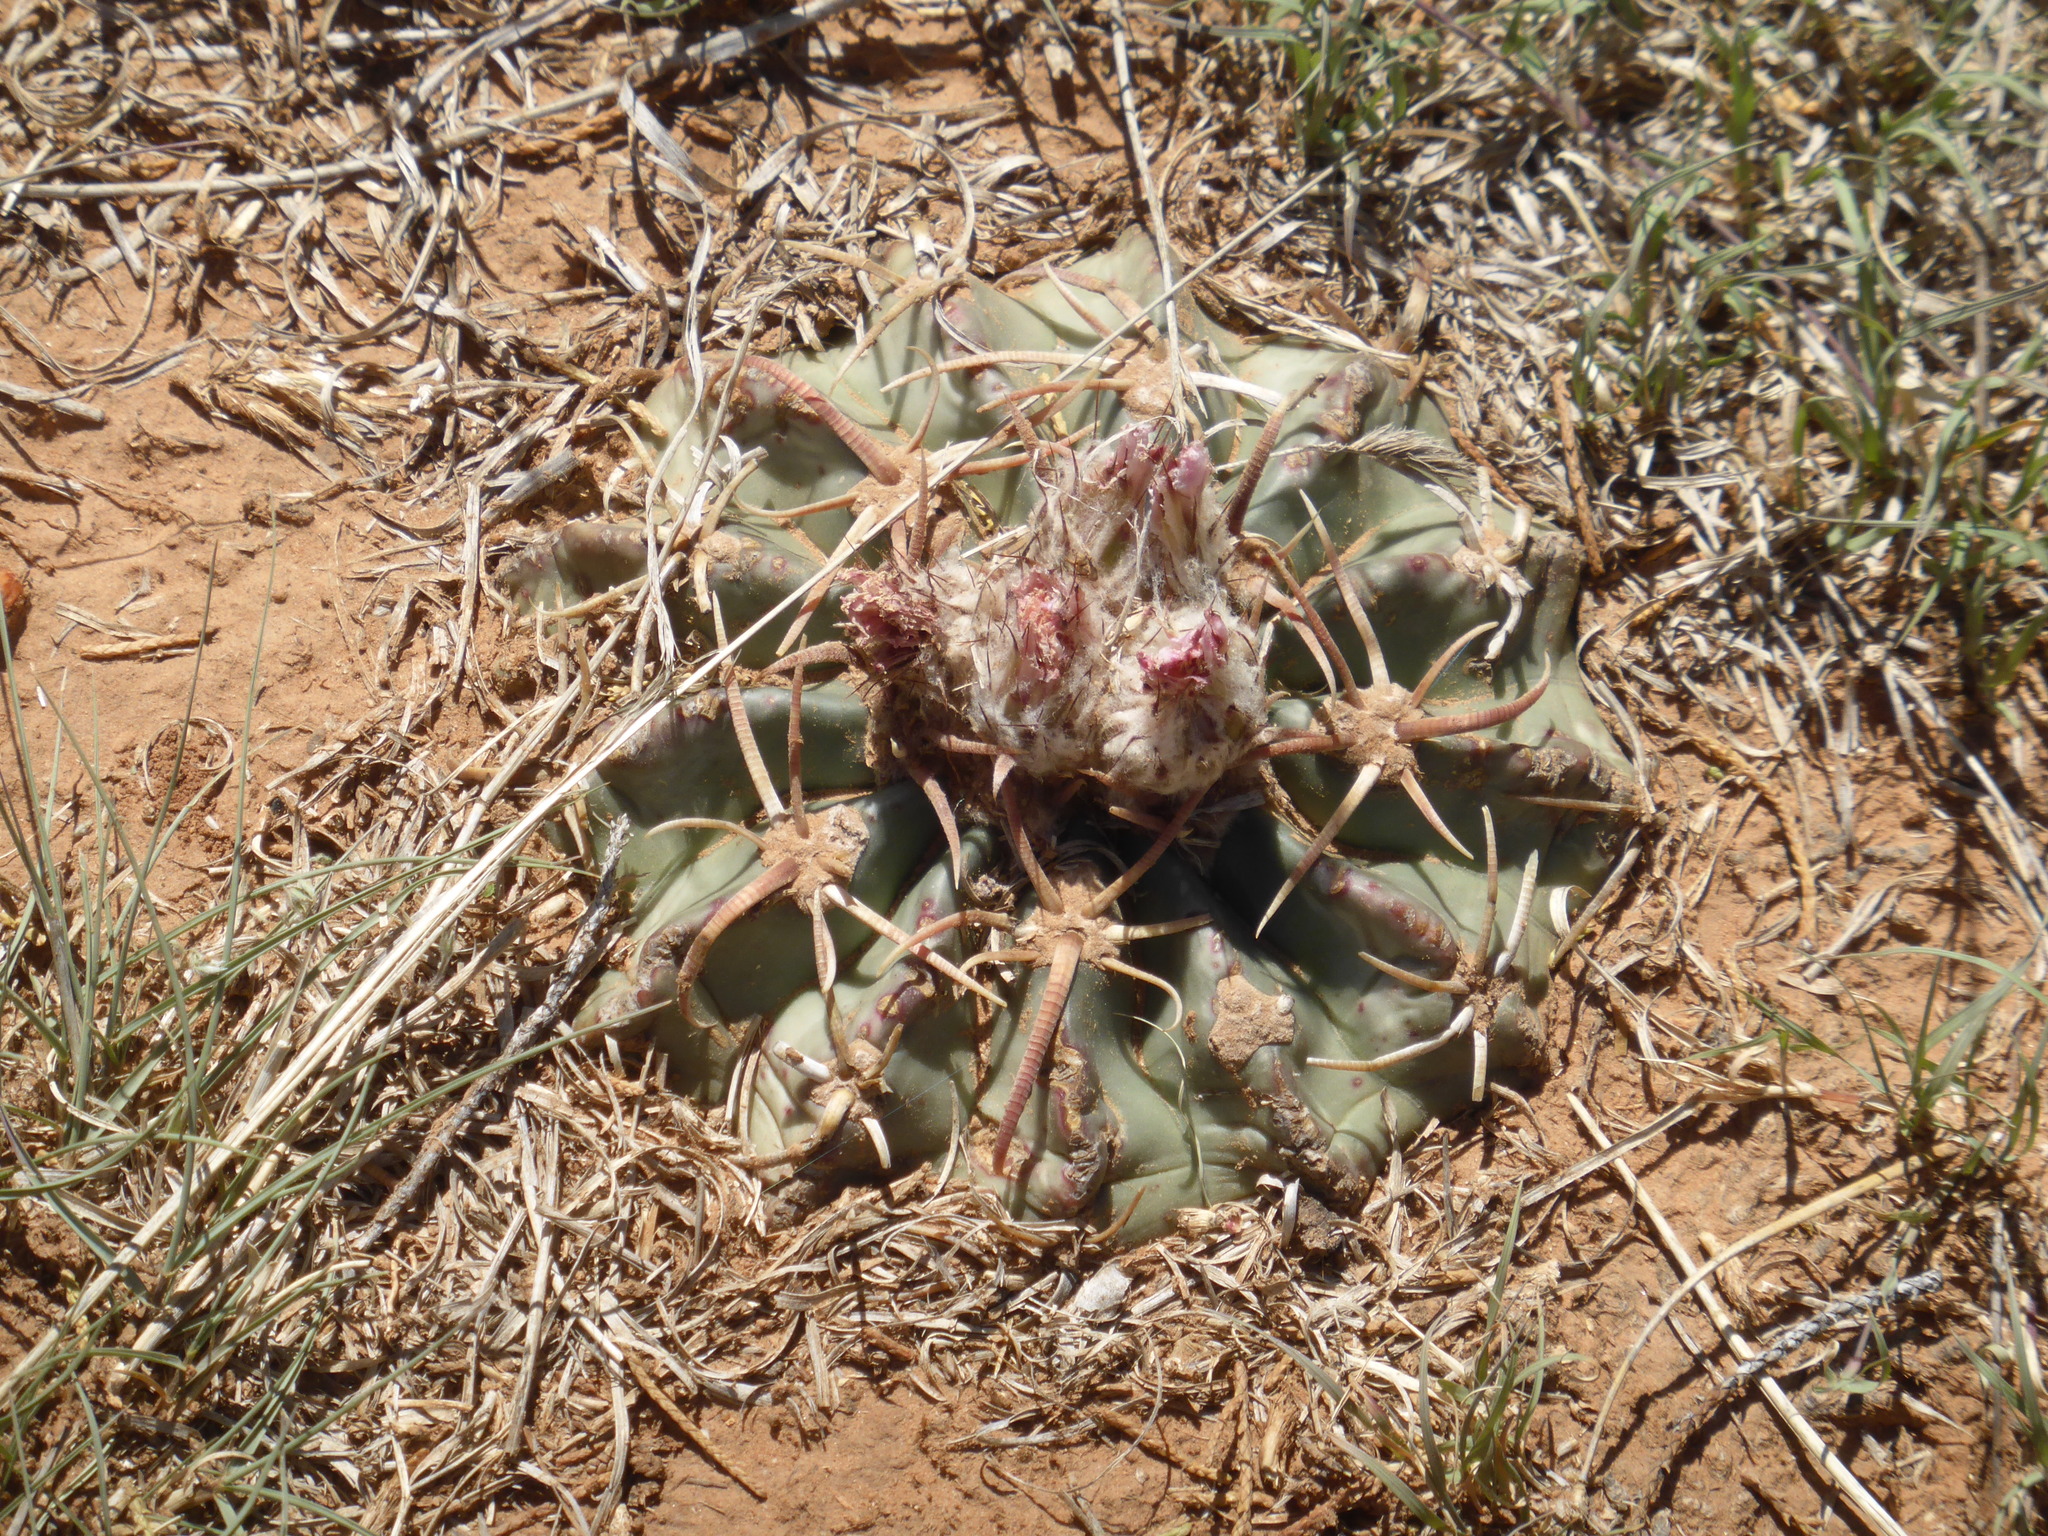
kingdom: Plantae
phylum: Tracheophyta
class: Magnoliopsida
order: Caryophyllales
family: Cactaceae
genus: Echinocactus
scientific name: Echinocactus texensis
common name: Devil's pincushion
